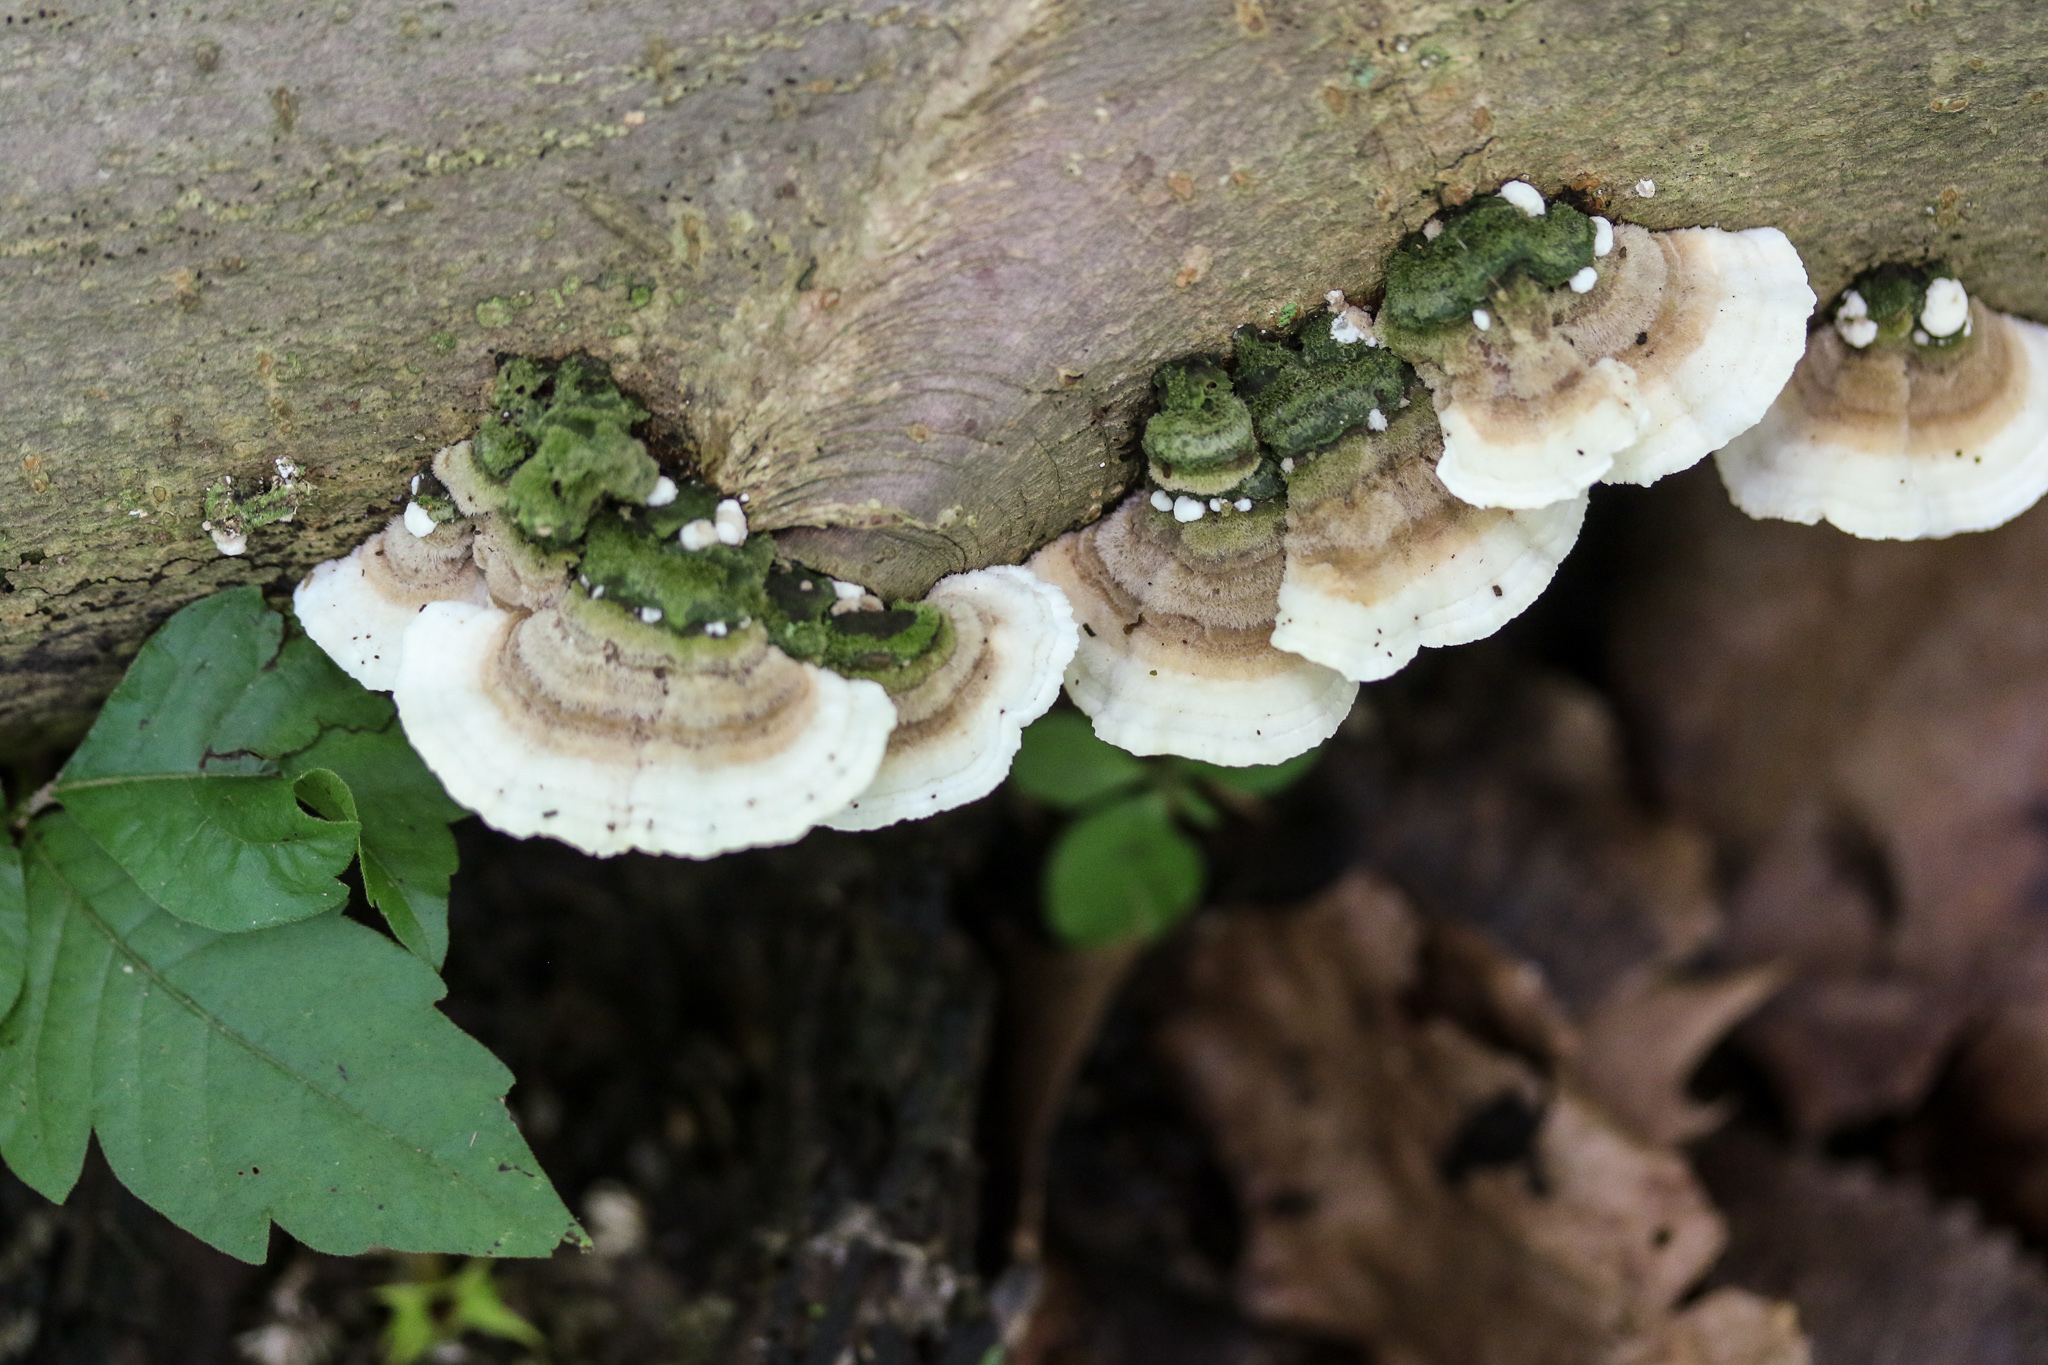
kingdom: Fungi
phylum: Basidiomycota
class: Agaricomycetes
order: Polyporales
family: Cerrenaceae
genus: Cerrena
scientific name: Cerrena unicolor
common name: Mossy maze polypore
